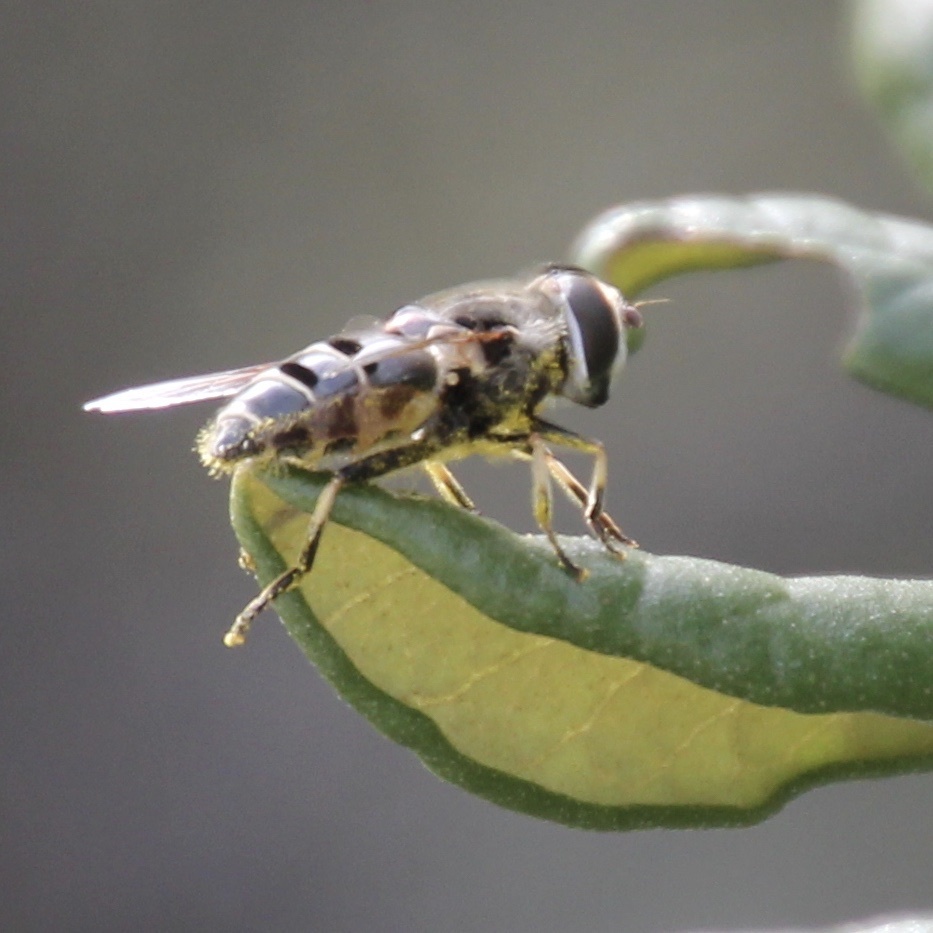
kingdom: Animalia
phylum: Arthropoda
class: Insecta
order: Diptera
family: Syrphidae
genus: Eristalis
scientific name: Eristalis dimidiata
